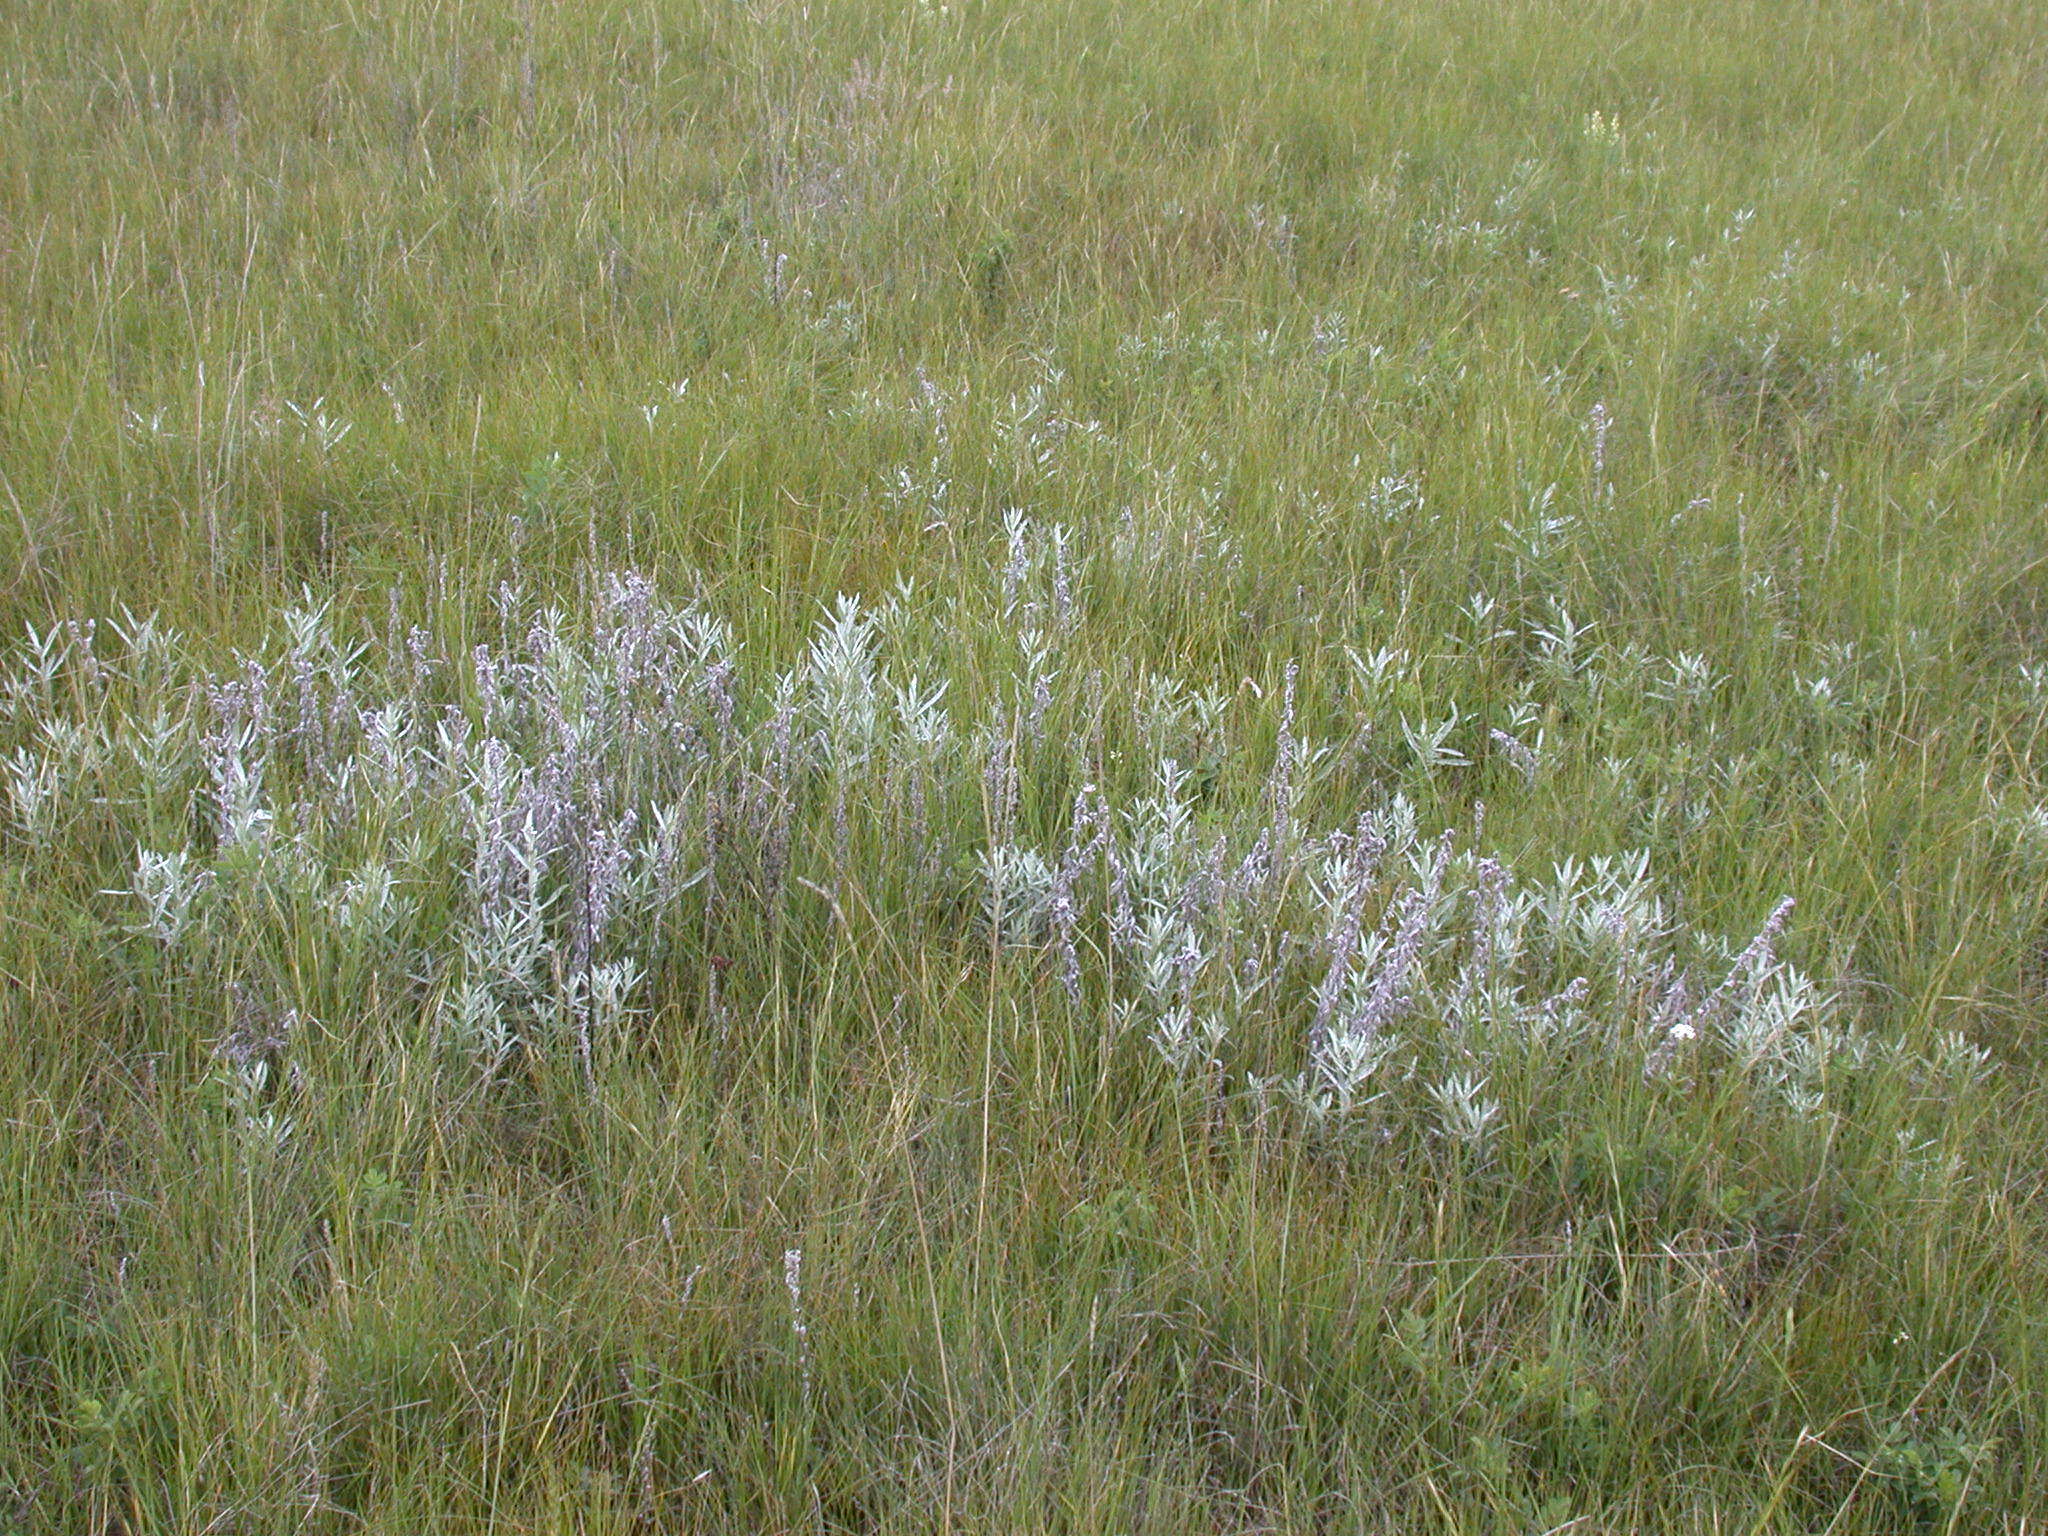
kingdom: Plantae
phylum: Tracheophyta
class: Magnoliopsida
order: Asterales
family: Asteraceae
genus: Artemisia
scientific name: Artemisia ludoviciana
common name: Western mugwort
